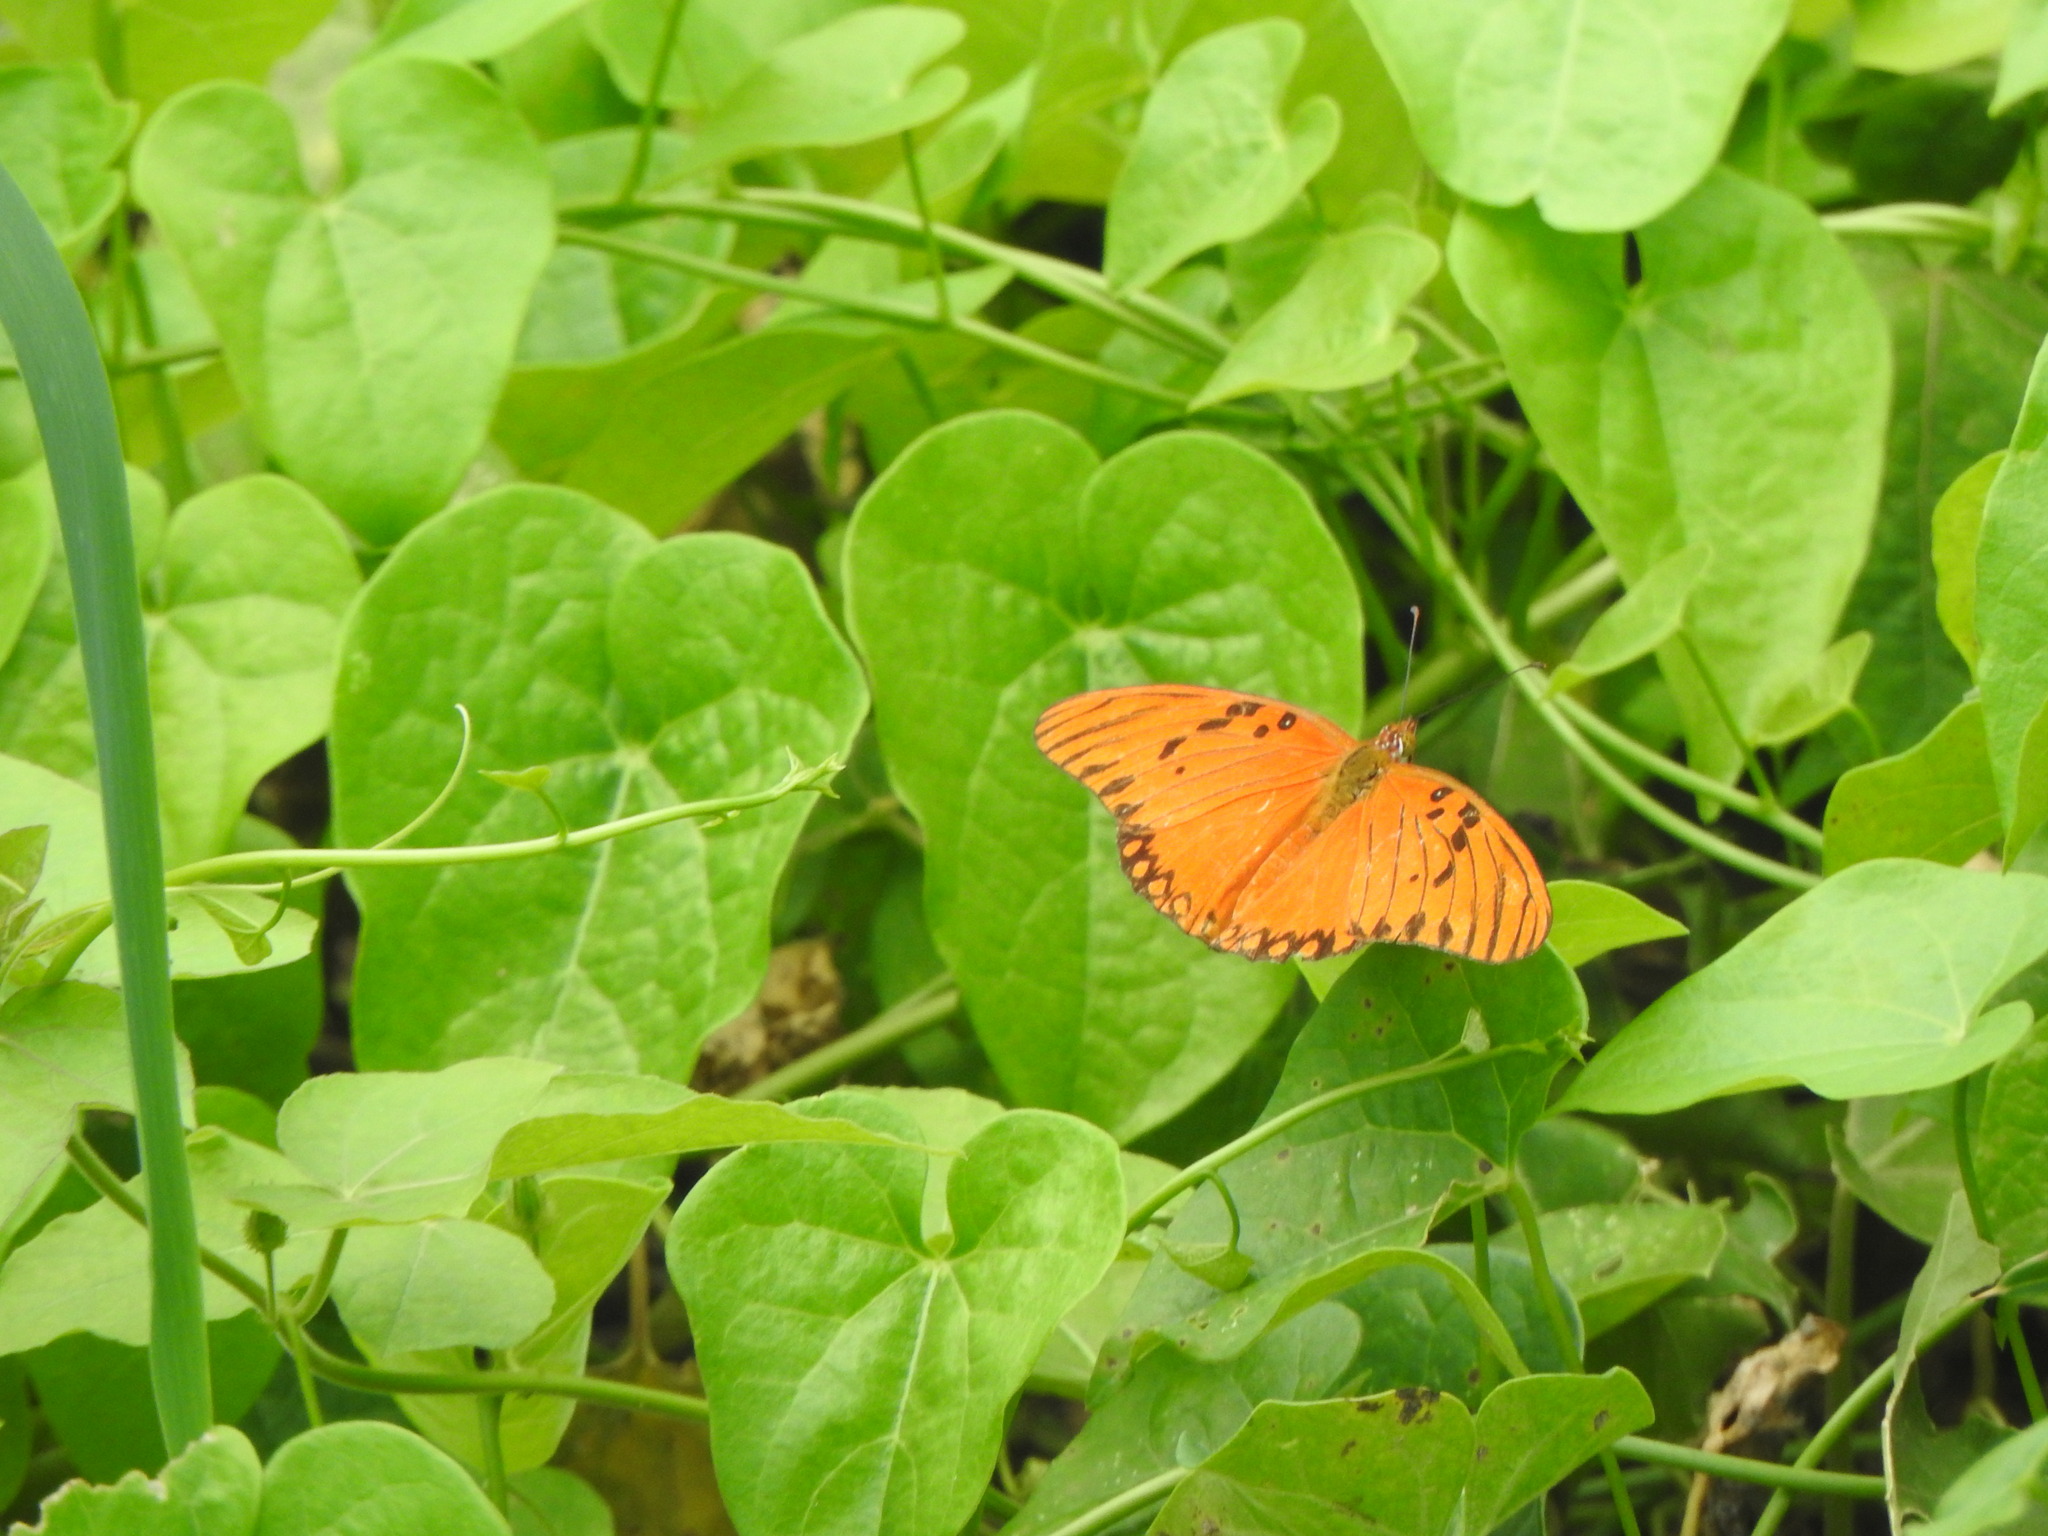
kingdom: Animalia
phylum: Arthropoda
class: Insecta
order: Lepidoptera
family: Nymphalidae
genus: Dione
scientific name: Dione vanillae
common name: Gulf fritillary
